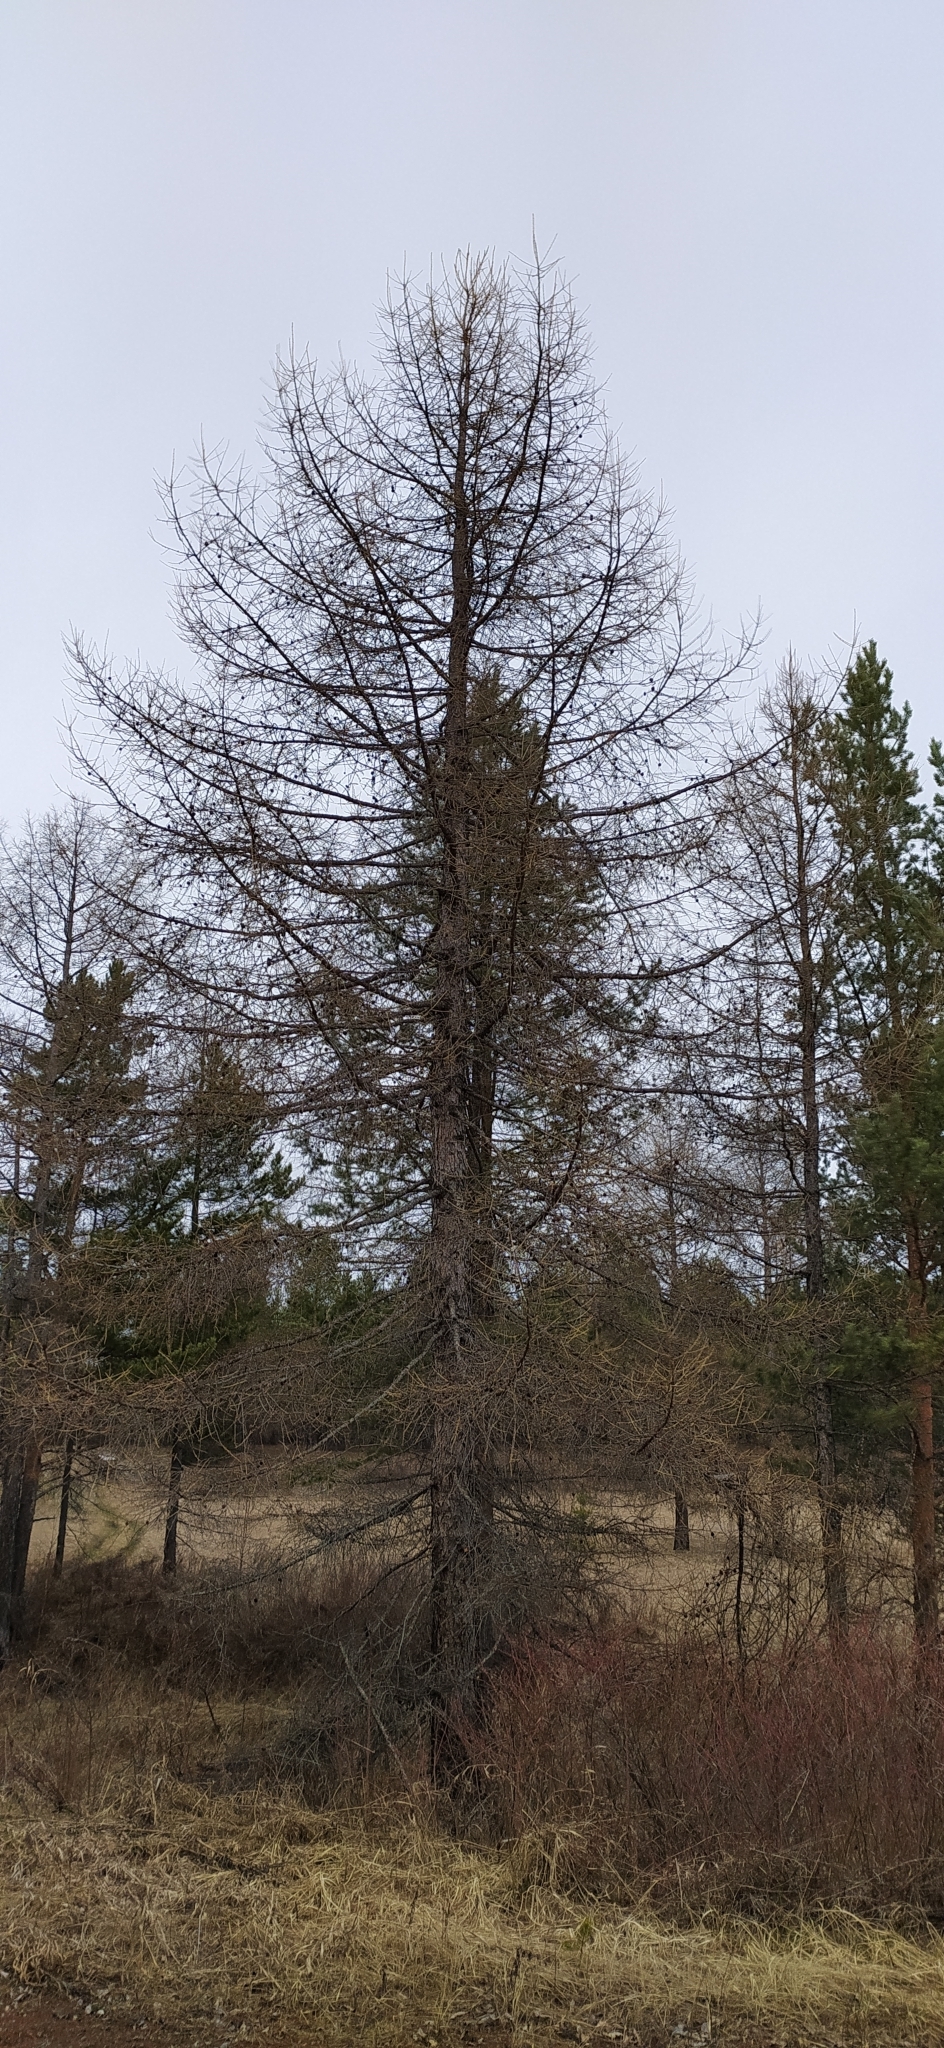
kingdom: Plantae
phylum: Tracheophyta
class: Pinopsida
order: Pinales
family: Pinaceae
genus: Larix
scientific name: Larix sibirica
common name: Siberian larch
